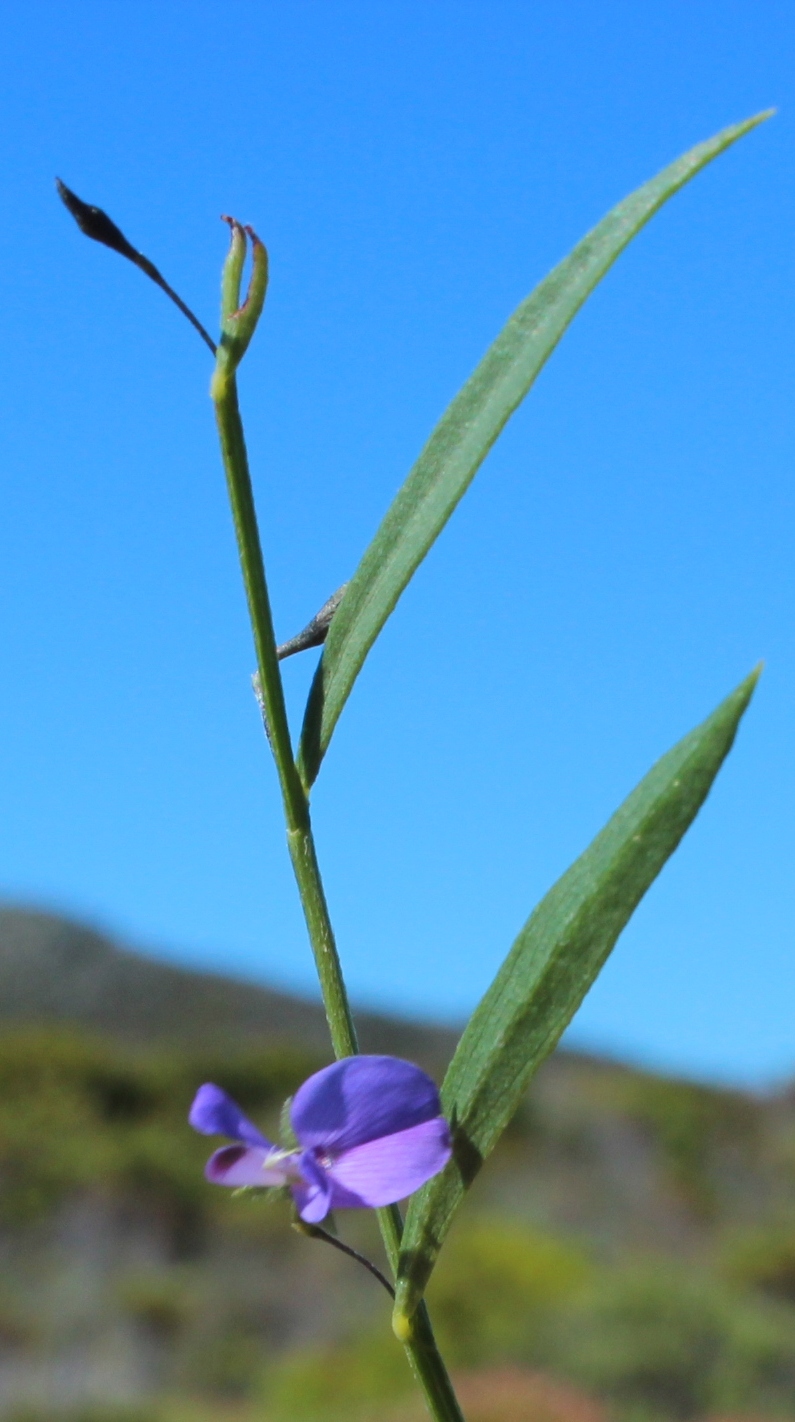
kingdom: Plantae
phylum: Tracheophyta
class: Magnoliopsida
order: Fabales
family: Fabaceae
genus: Psoralea
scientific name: Psoralea laxa
